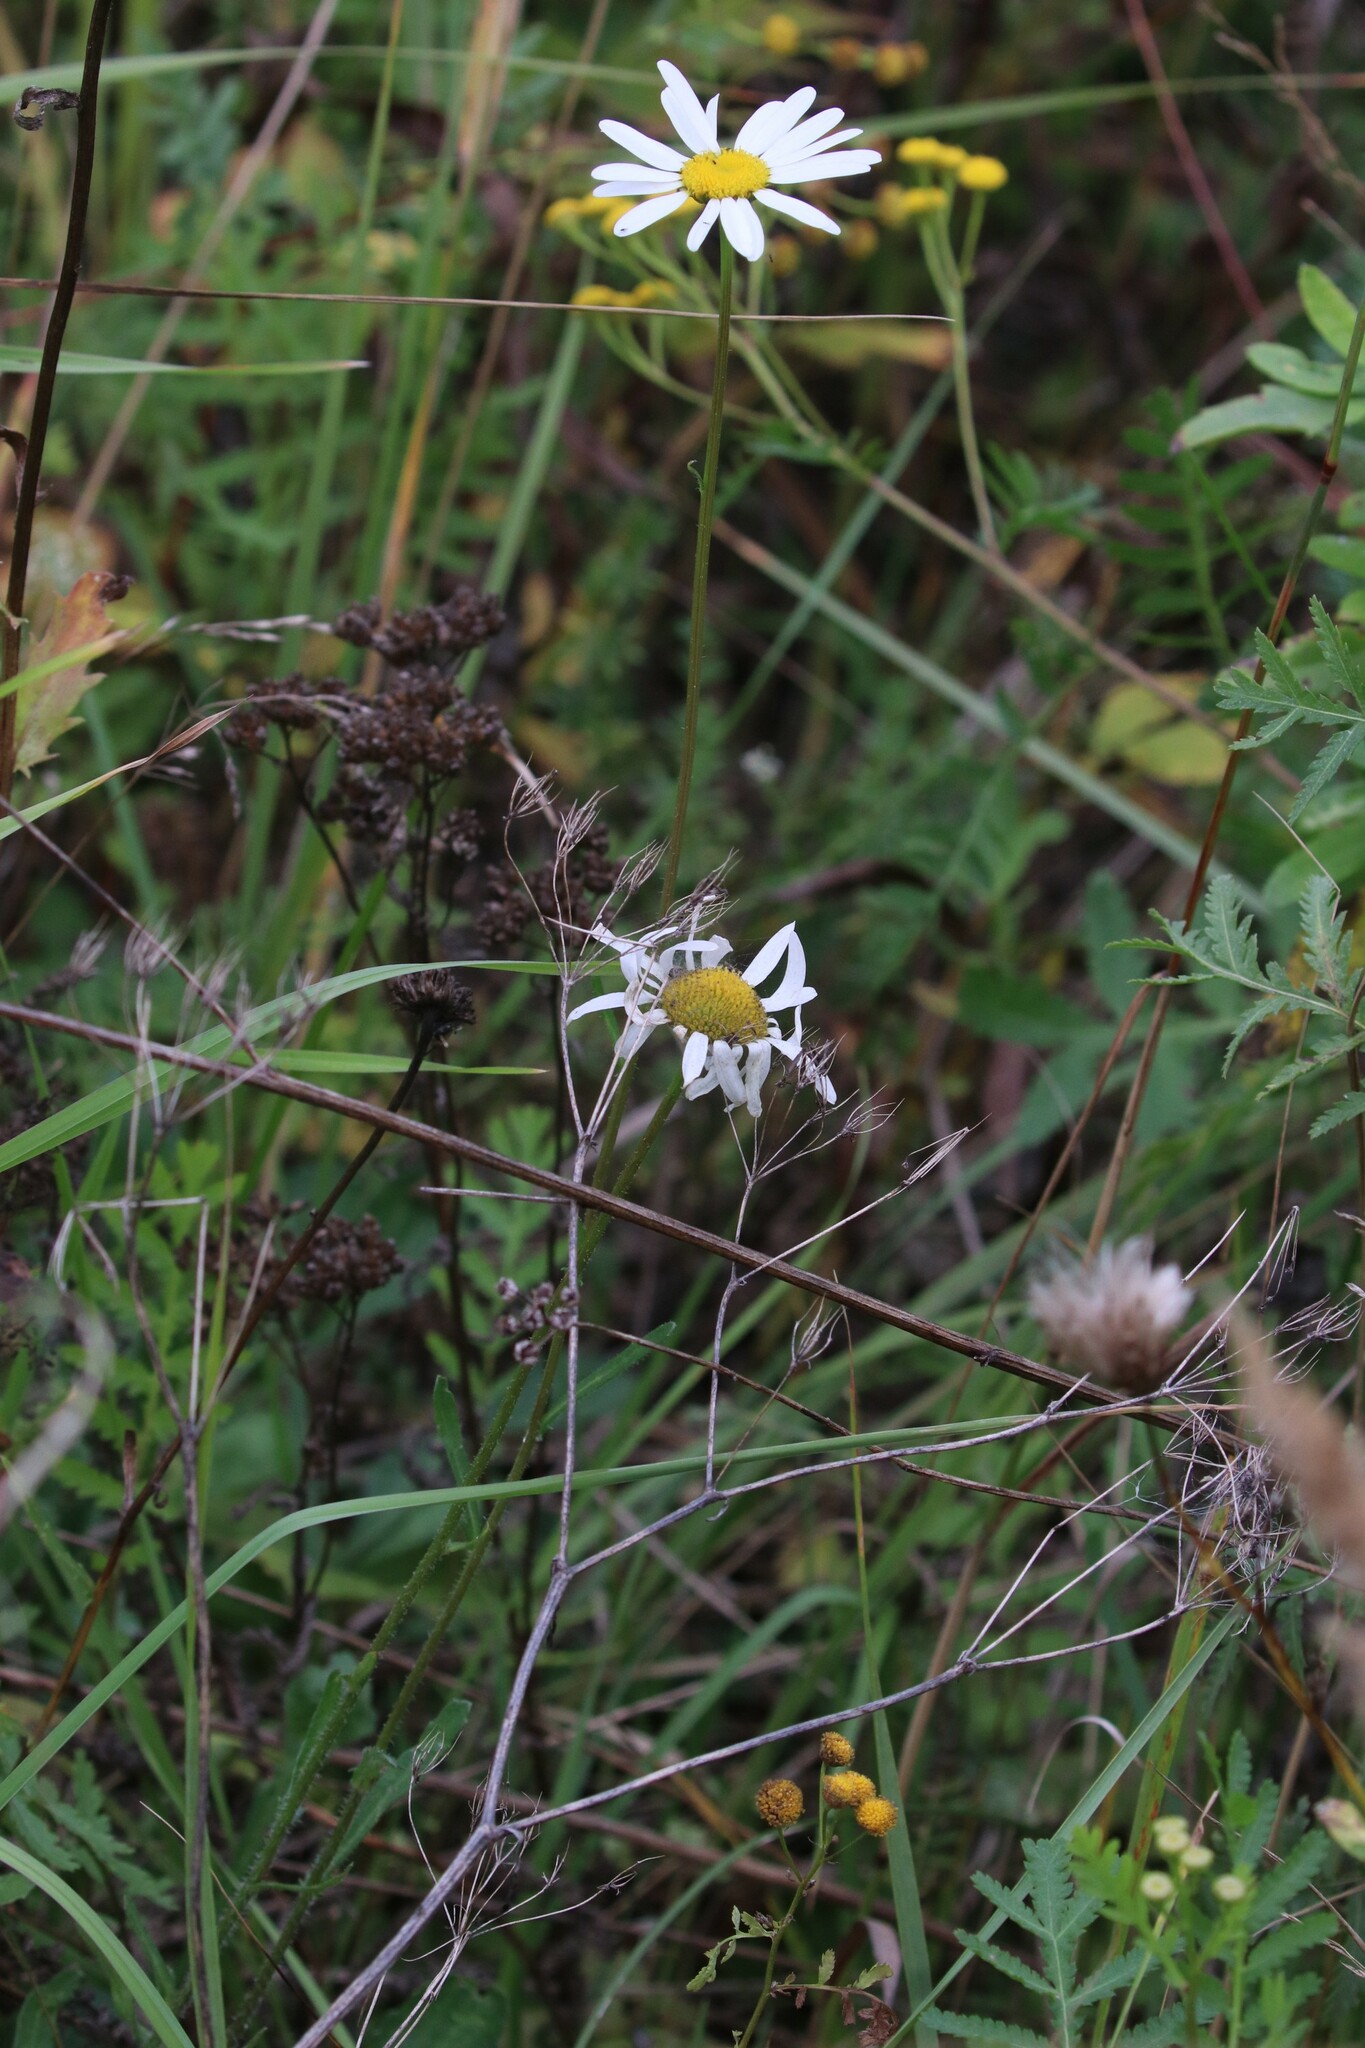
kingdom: Plantae
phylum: Tracheophyta
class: Magnoliopsida
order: Asterales
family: Asteraceae
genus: Leucanthemum
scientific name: Leucanthemum vulgare
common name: Oxeye daisy
